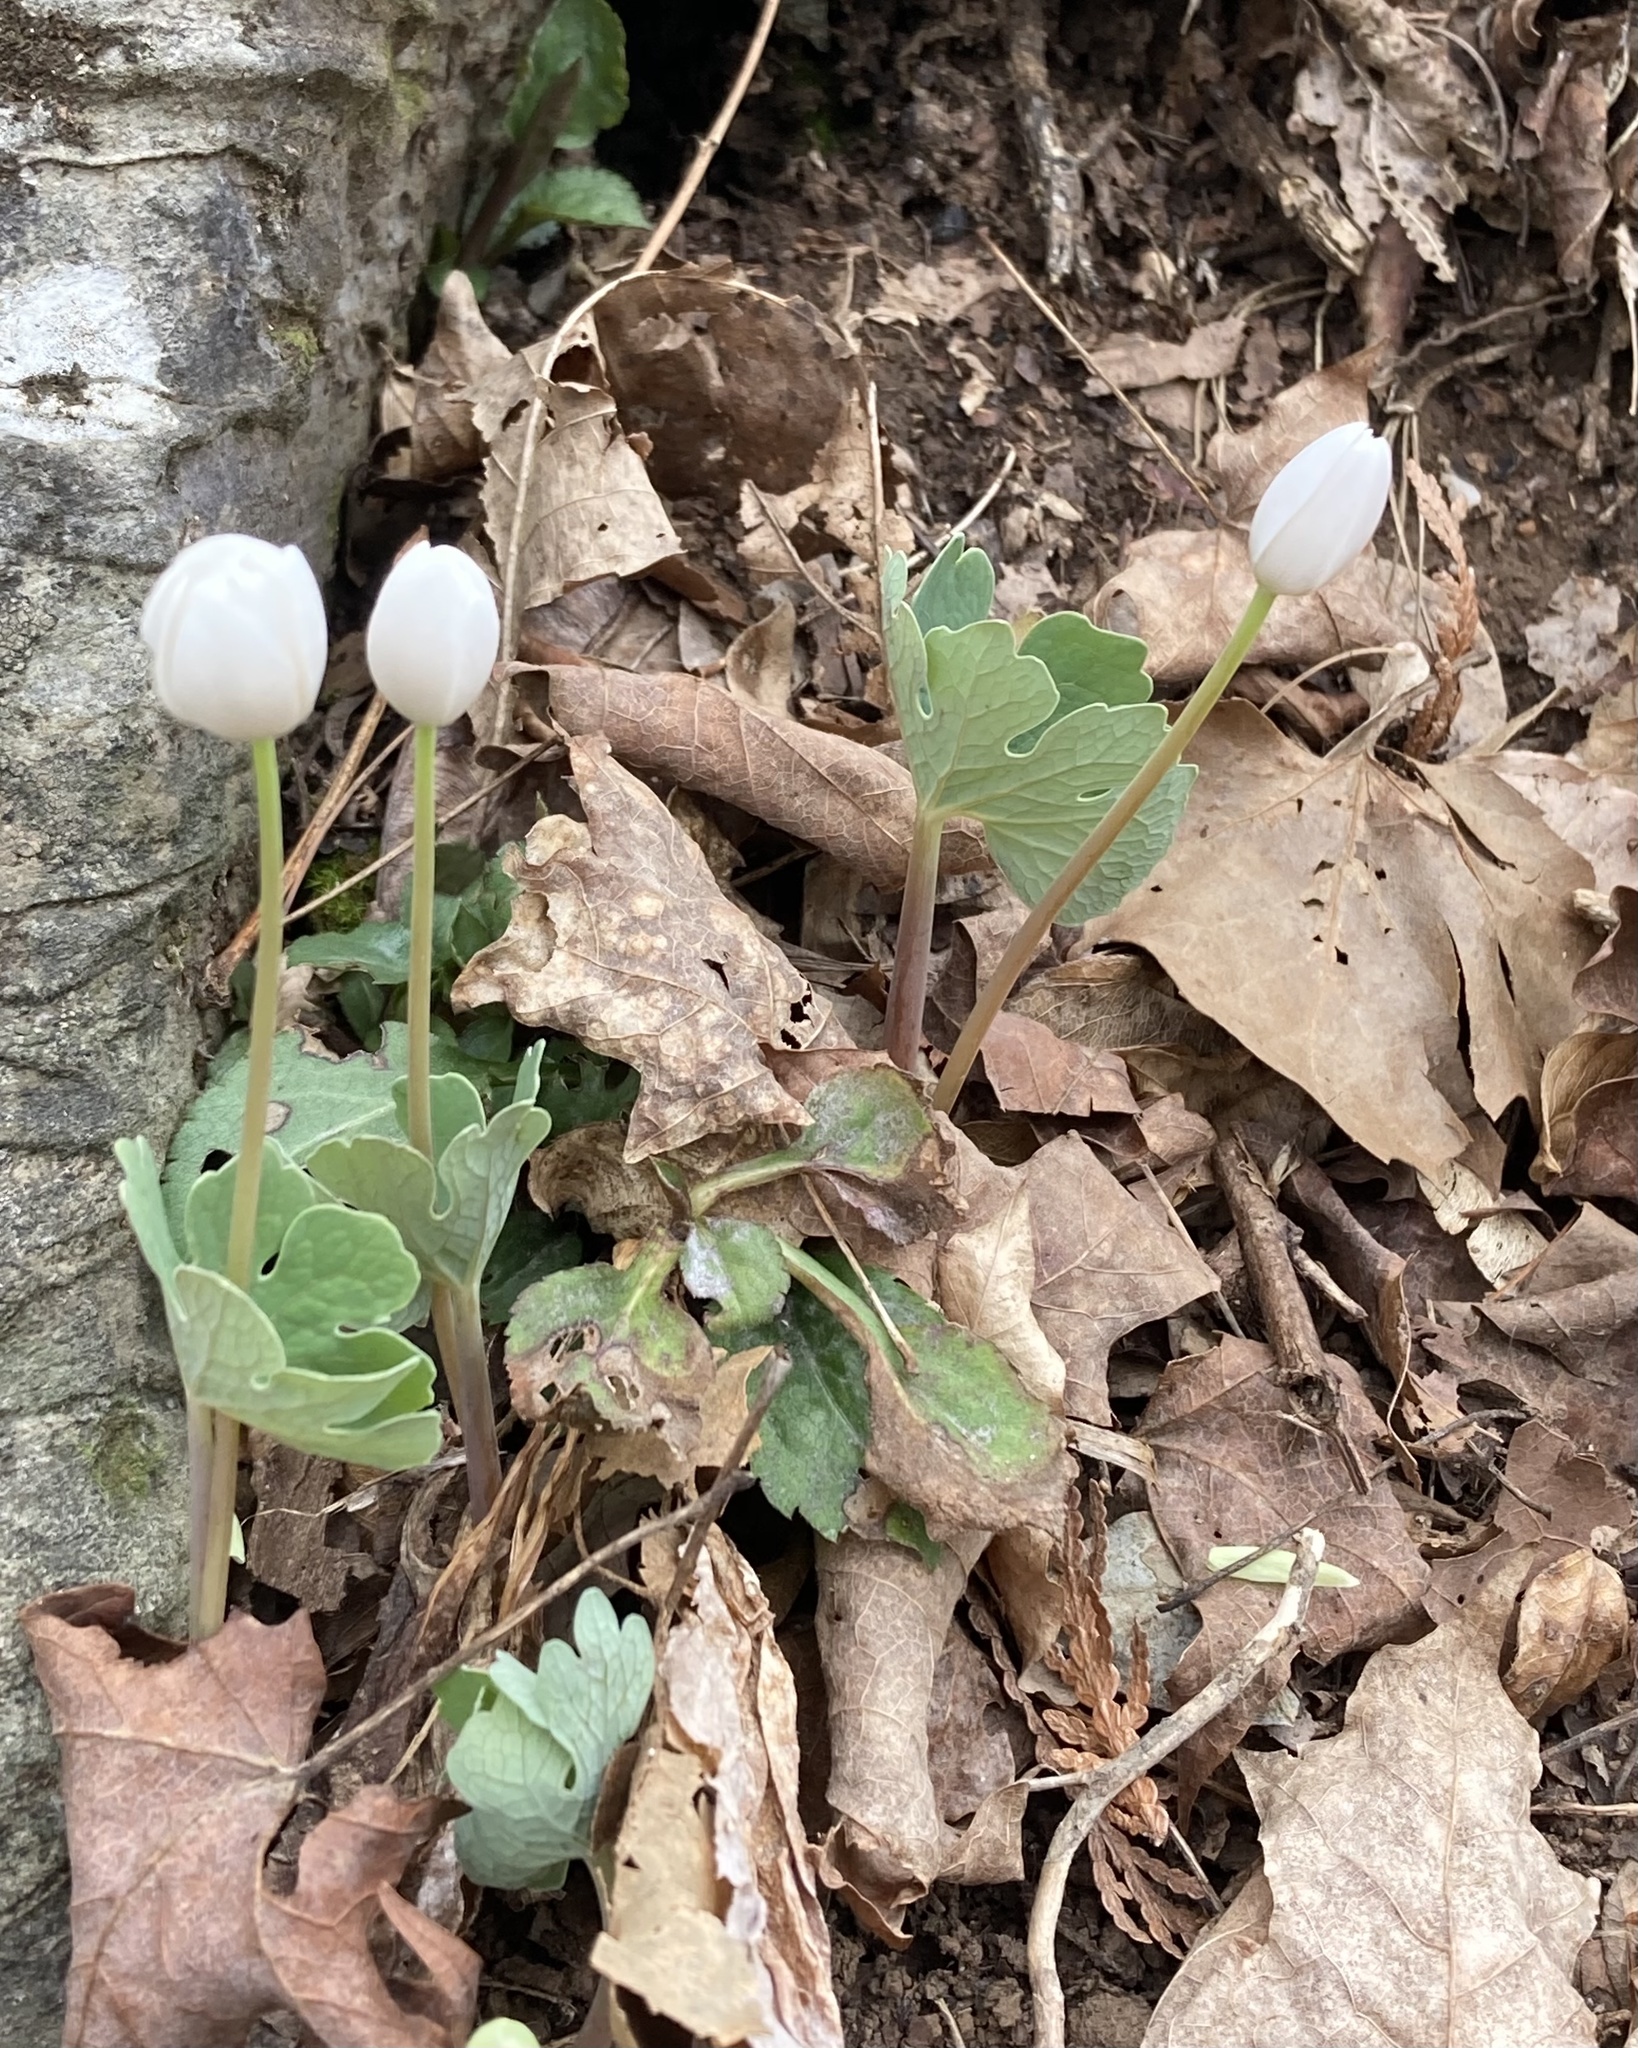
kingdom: Plantae
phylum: Tracheophyta
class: Magnoliopsida
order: Ranunculales
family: Papaveraceae
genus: Sanguinaria
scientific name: Sanguinaria canadensis
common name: Bloodroot
